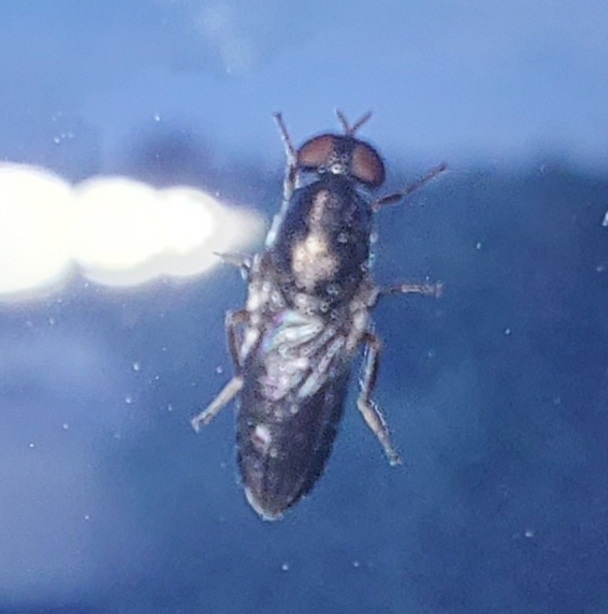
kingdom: Animalia
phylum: Arthropoda
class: Insecta
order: Diptera
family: Scenopinidae
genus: Scenopinus
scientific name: Scenopinus fenestralis
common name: House windowfly
